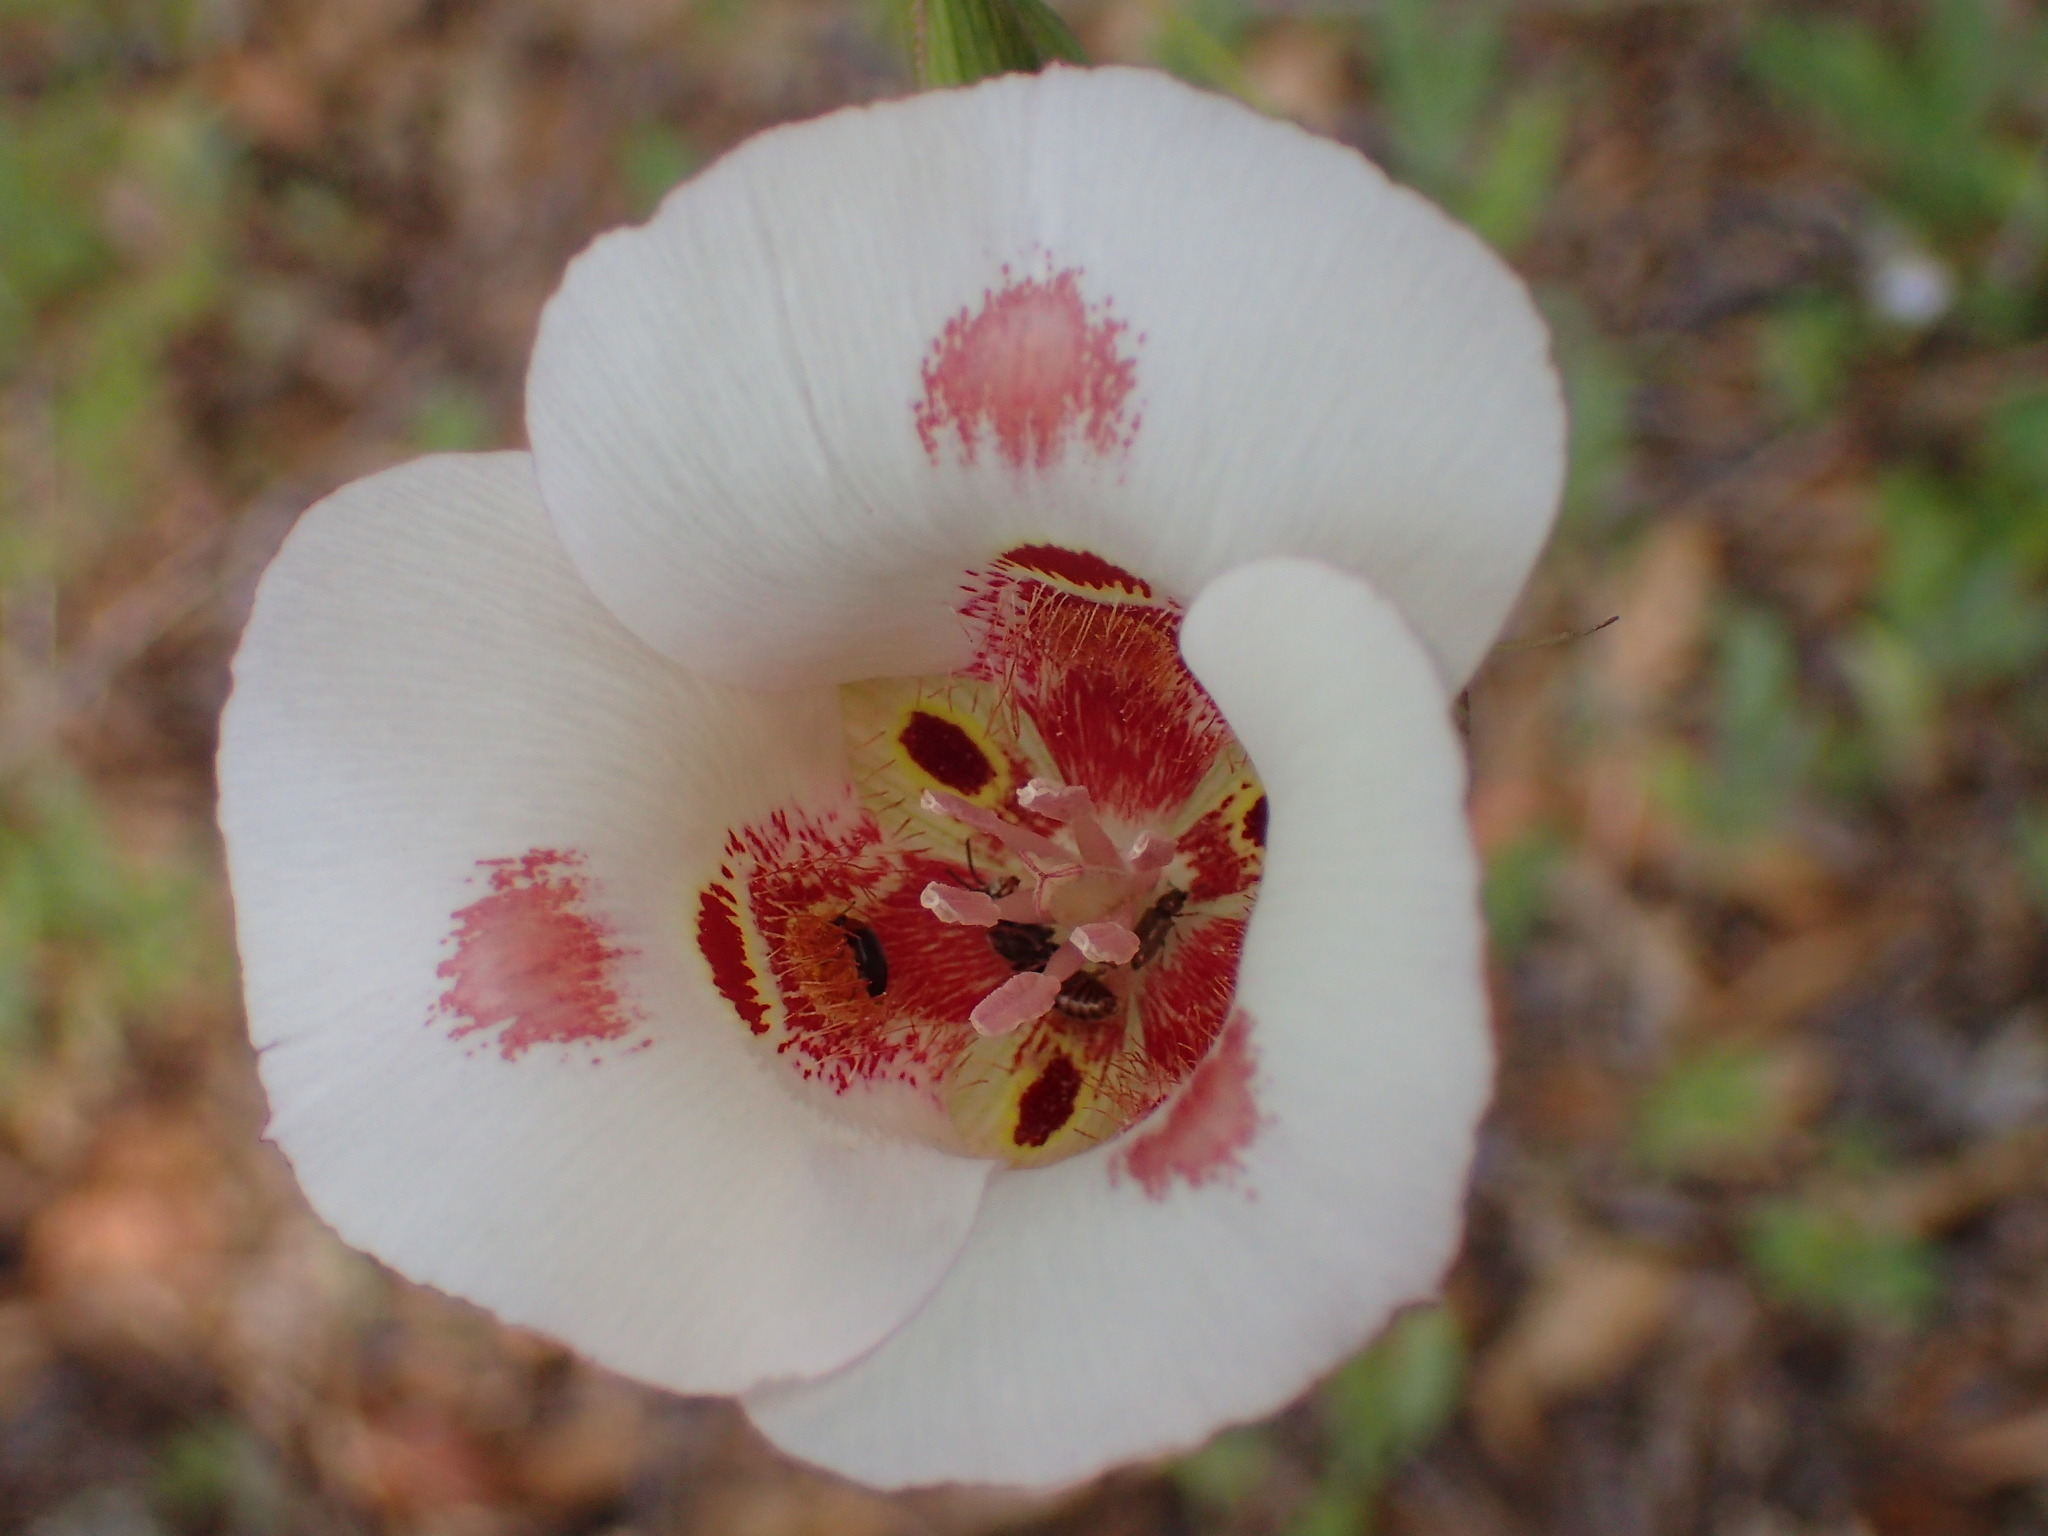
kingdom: Plantae
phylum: Tracheophyta
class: Liliopsida
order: Liliales
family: Liliaceae
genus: Calochortus
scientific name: Calochortus venustus
